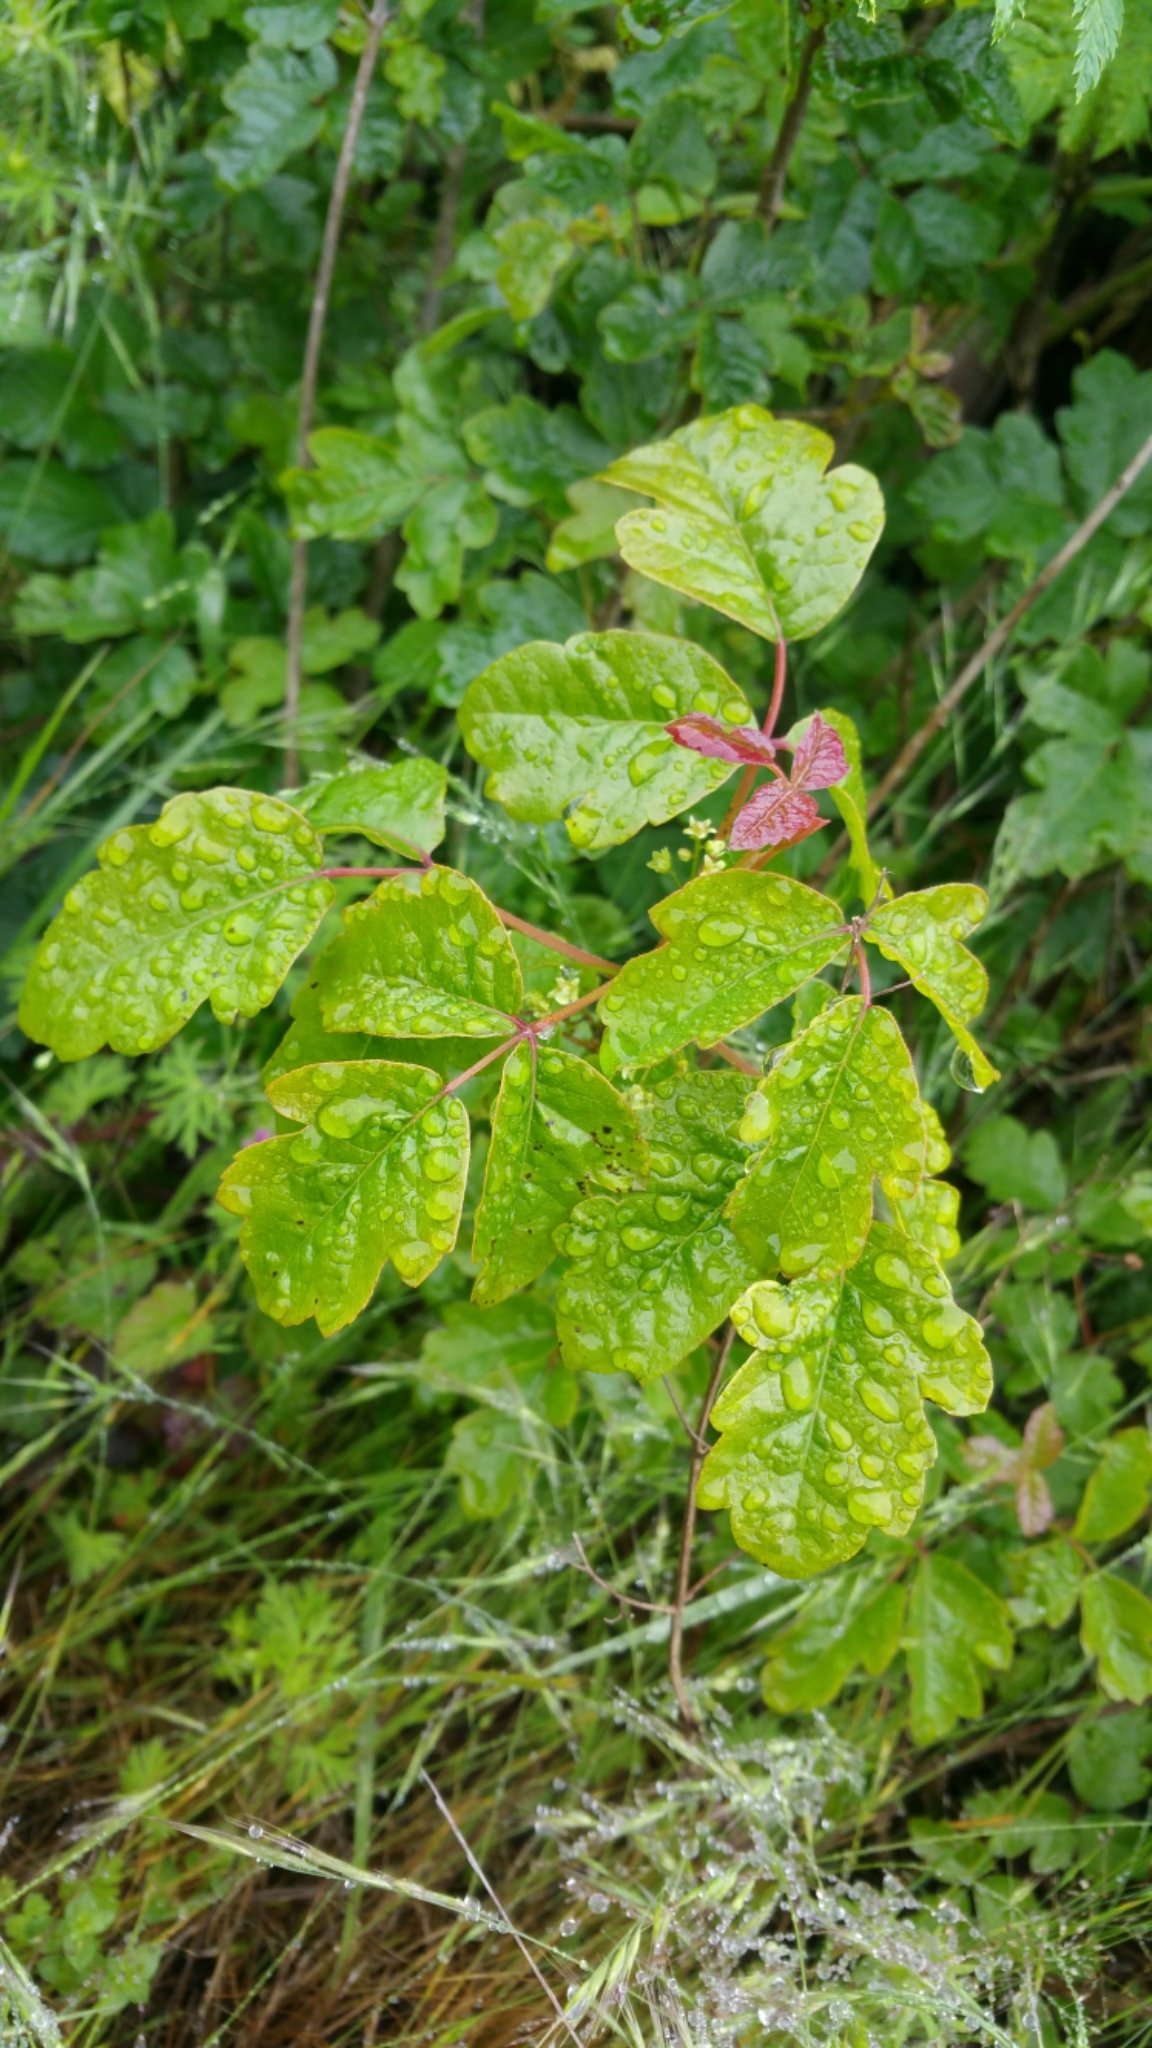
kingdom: Plantae
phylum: Tracheophyta
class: Magnoliopsida
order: Sapindales
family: Anacardiaceae
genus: Toxicodendron
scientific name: Toxicodendron diversilobum
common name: Pacific poison-oak
